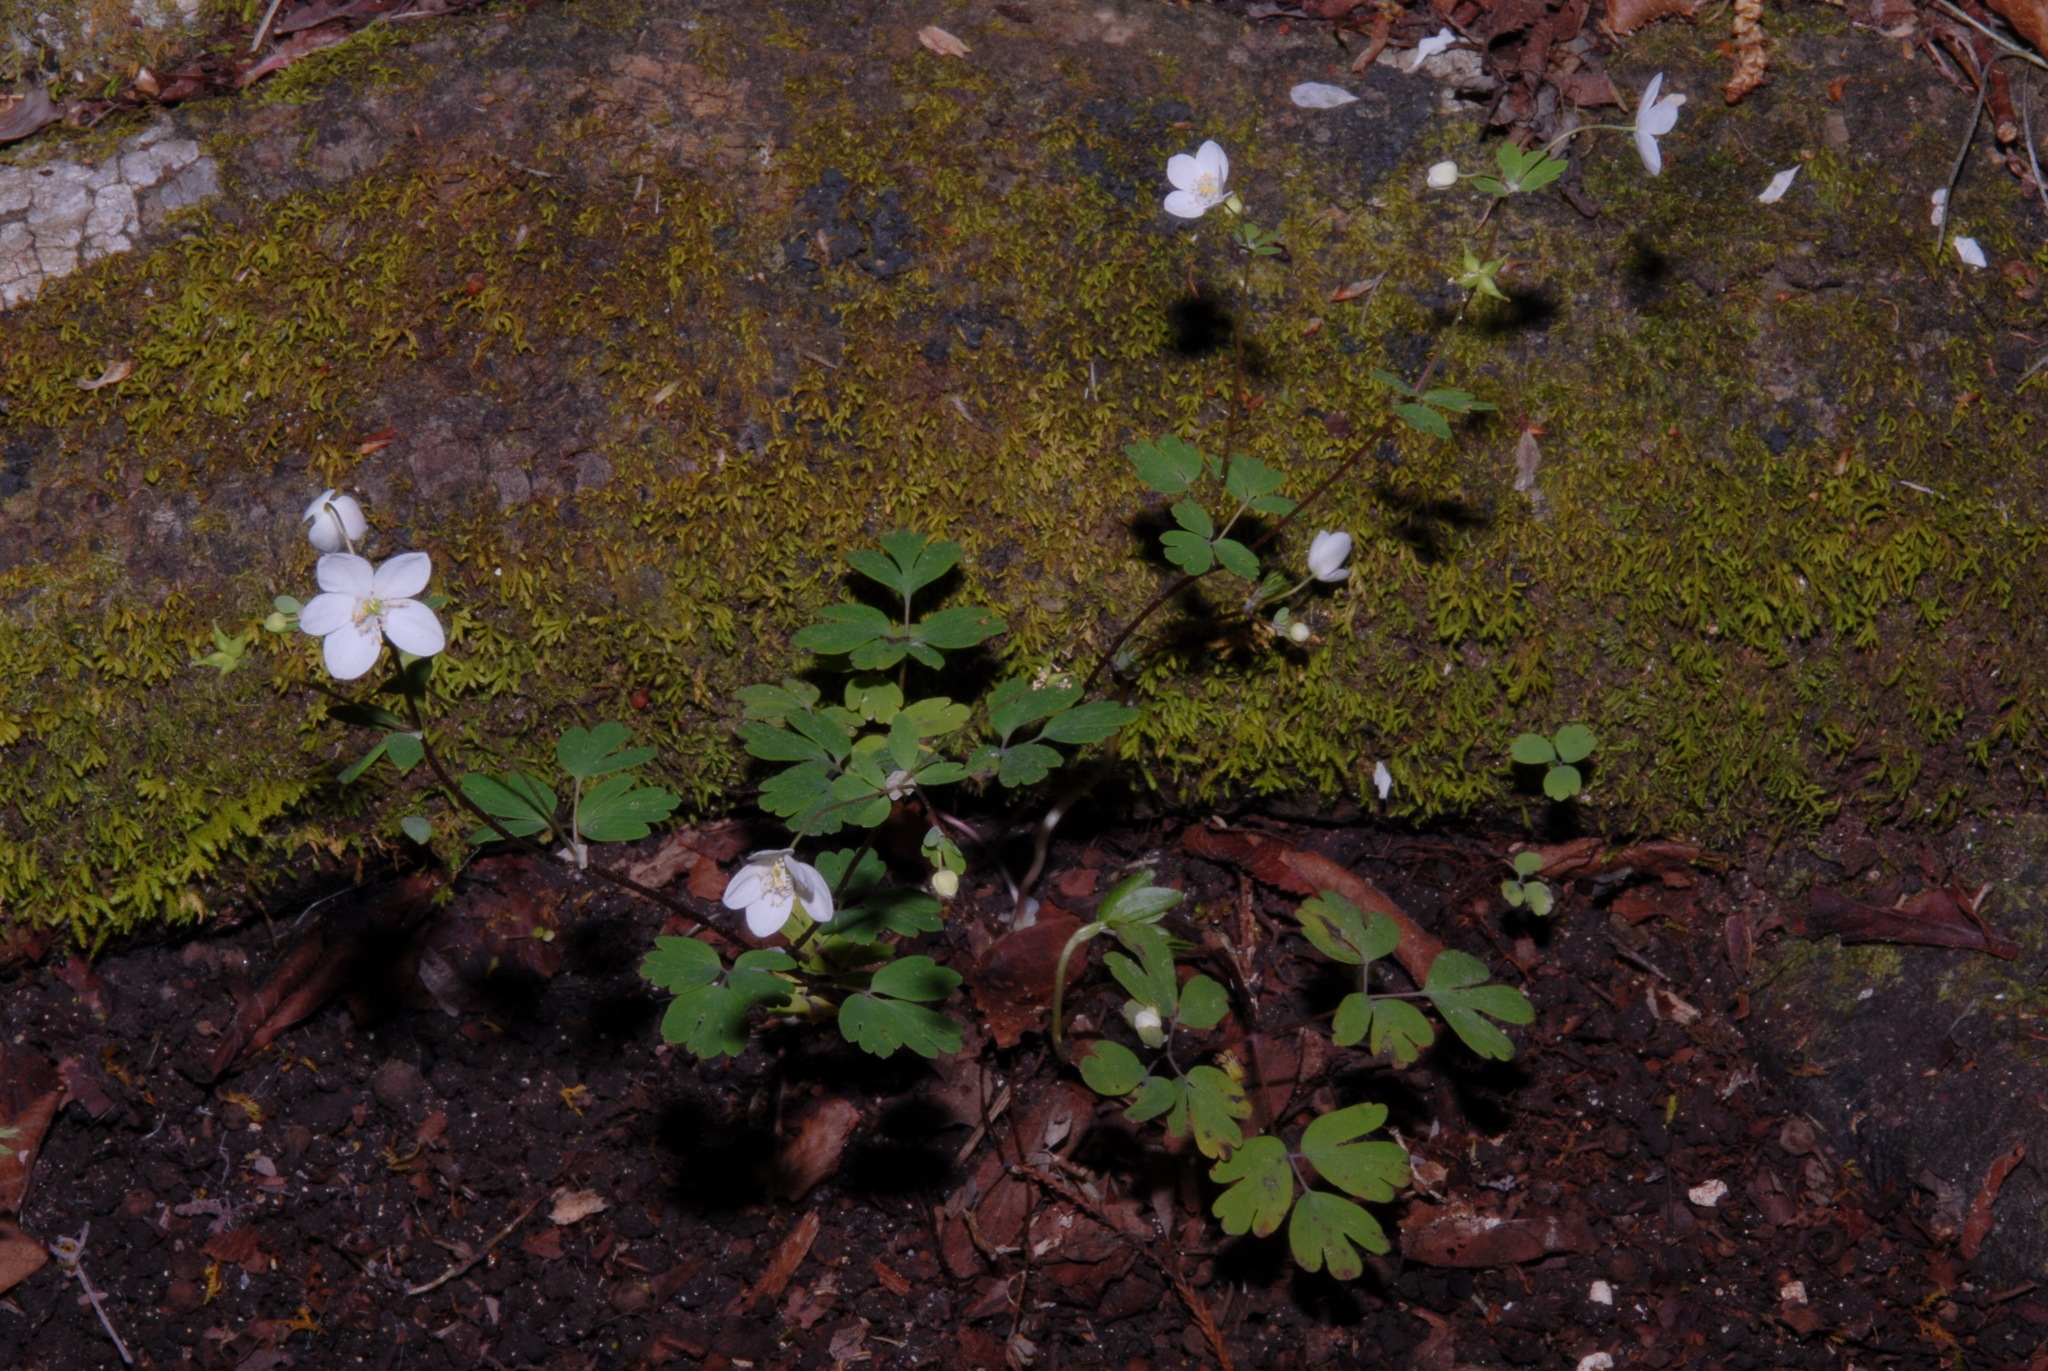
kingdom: Plantae
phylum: Tracheophyta
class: Magnoliopsida
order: Ranunculales
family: Ranunculaceae
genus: Enemion
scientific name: Enemion biternatum
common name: Eastern false rue-anemone
